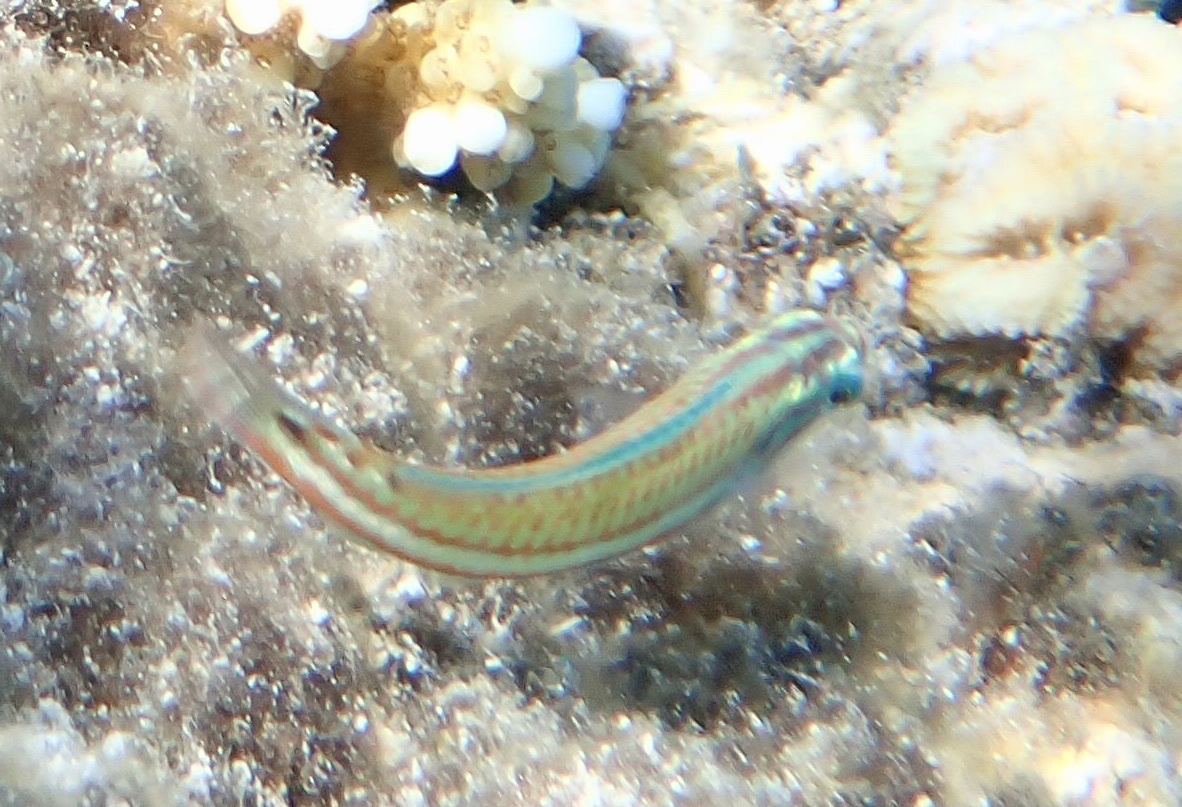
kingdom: Animalia
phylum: Chordata
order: Perciformes
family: Labridae
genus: Thalassoma
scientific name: Thalassoma rueppellii
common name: Klunzinger's wrasse
